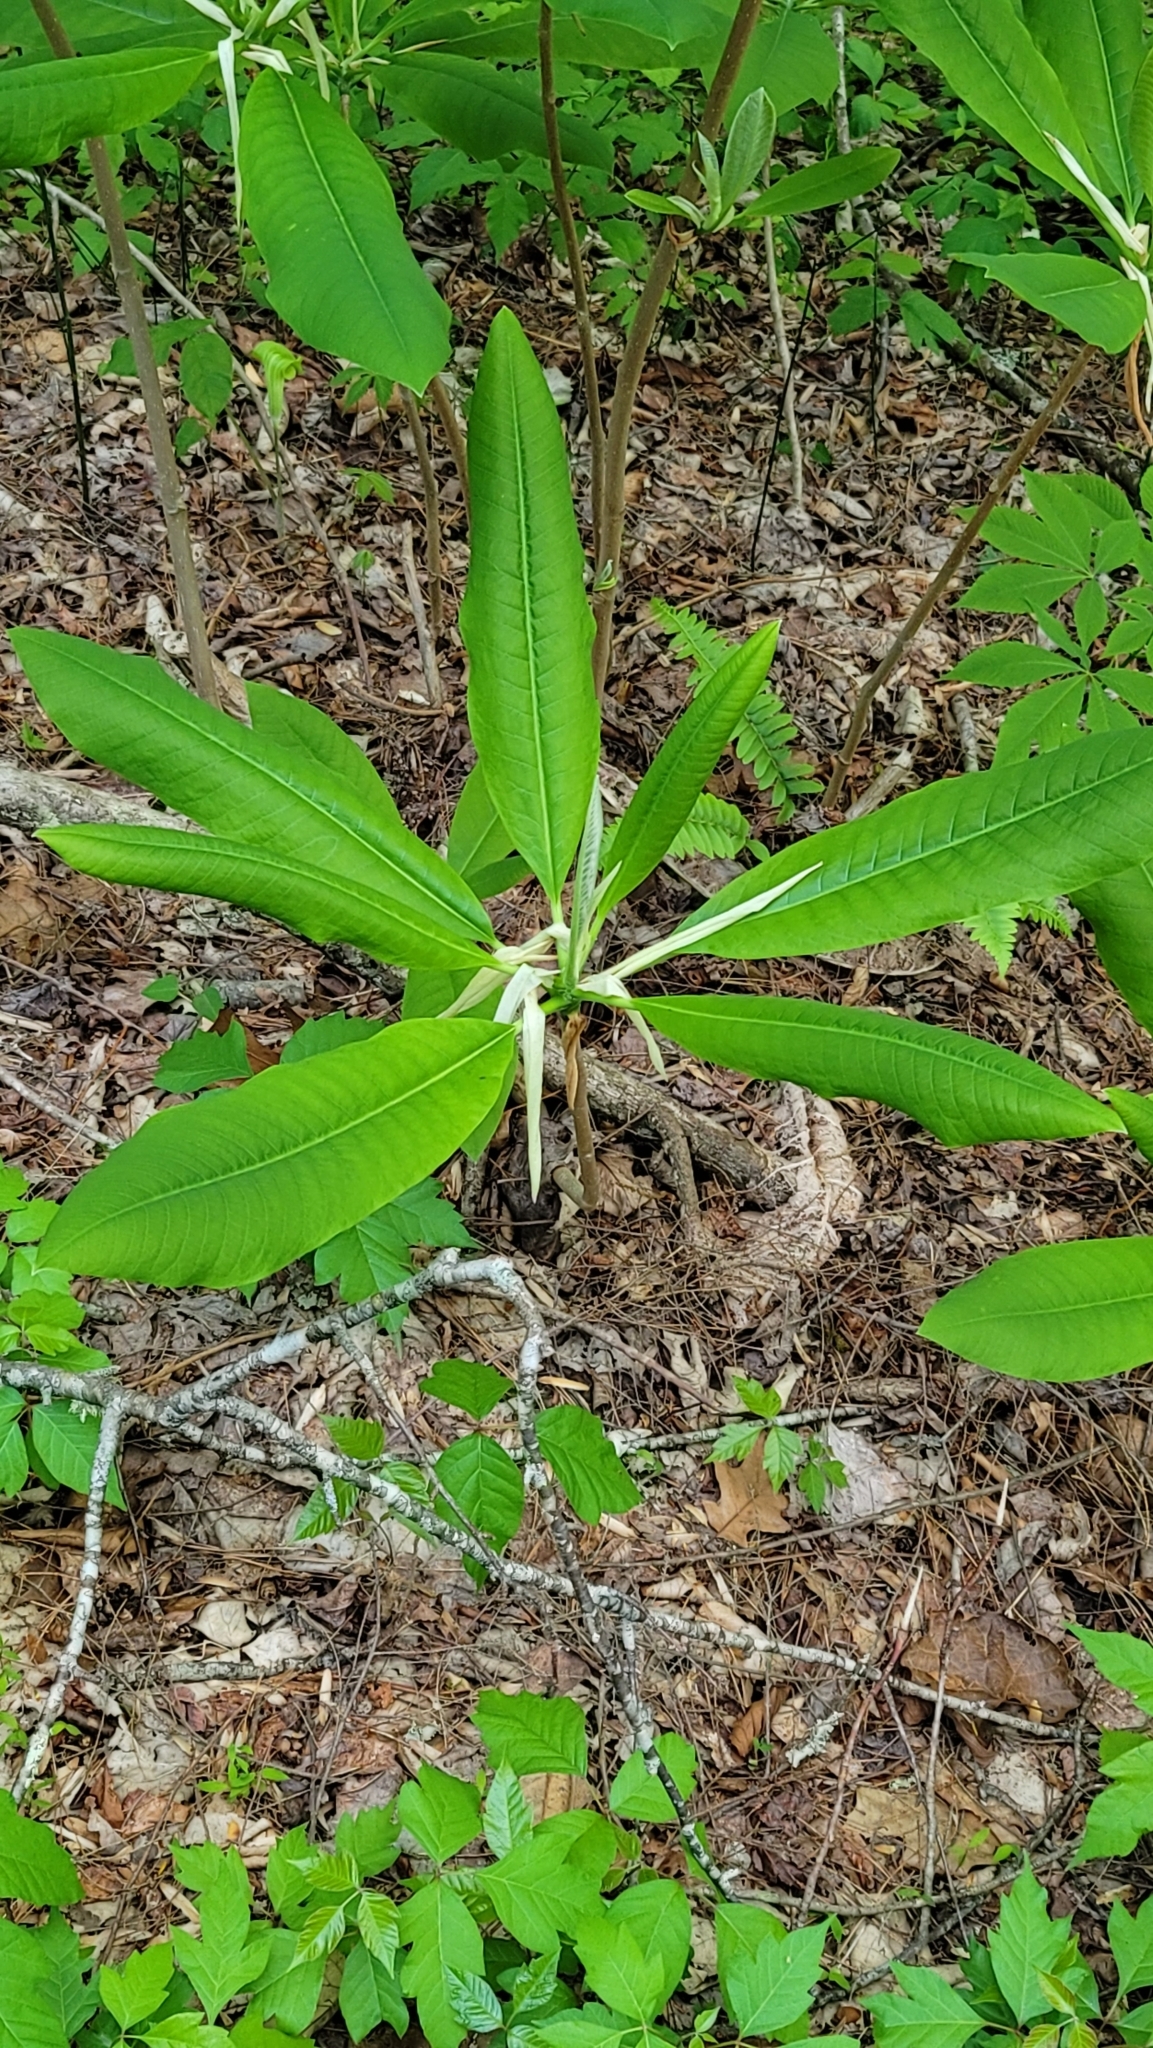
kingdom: Plantae
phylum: Tracheophyta
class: Magnoliopsida
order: Magnoliales
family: Magnoliaceae
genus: Magnolia
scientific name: Magnolia tripetala
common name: Umbrella magnolia
